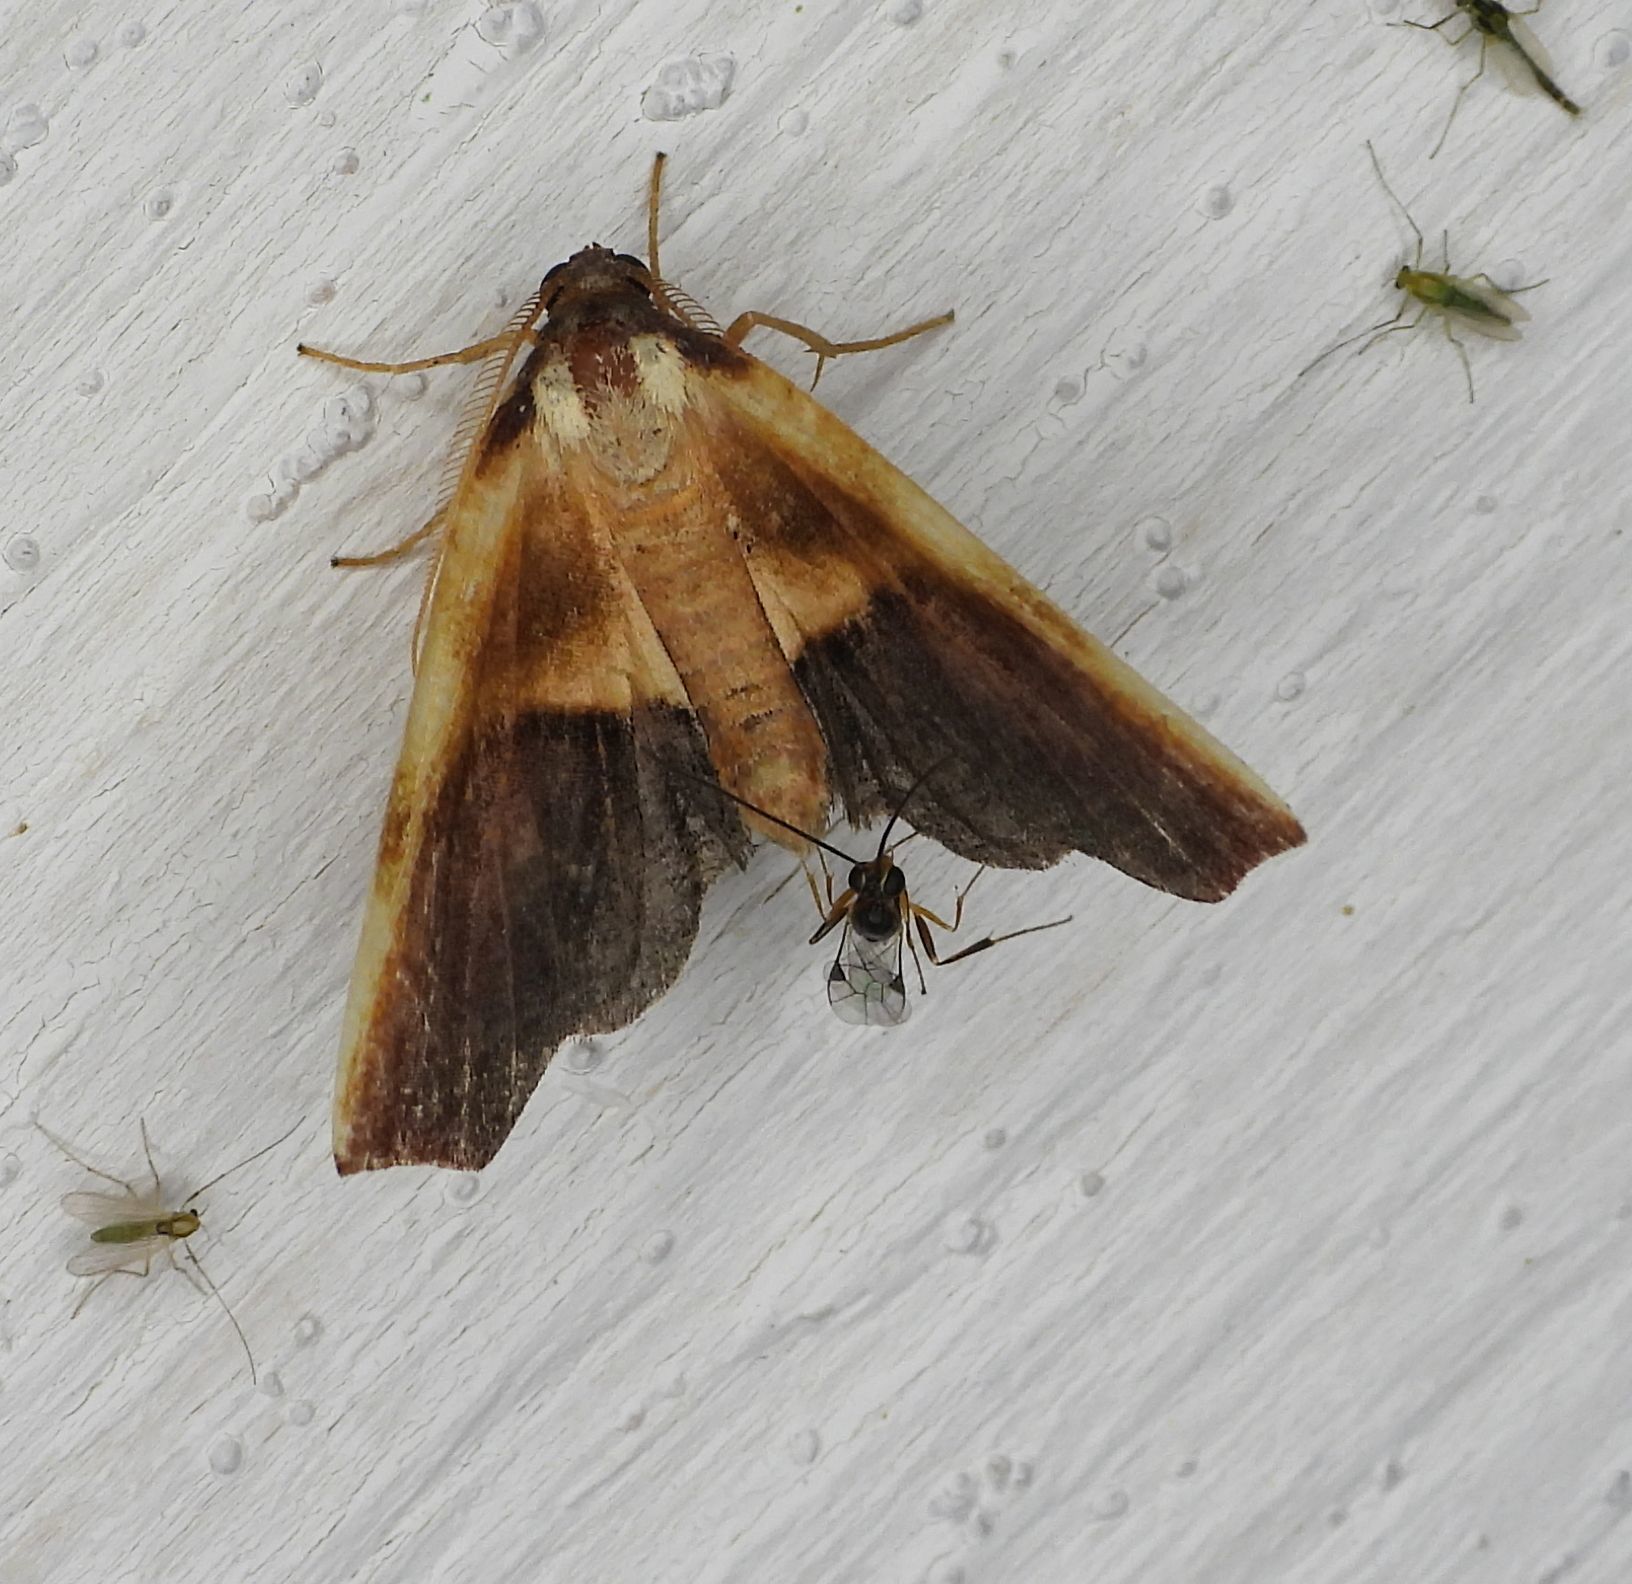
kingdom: Animalia
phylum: Arthropoda
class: Insecta
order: Lepidoptera
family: Geometridae
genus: Plagodis
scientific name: Plagodis kuetzingi
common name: Purple plagodis
